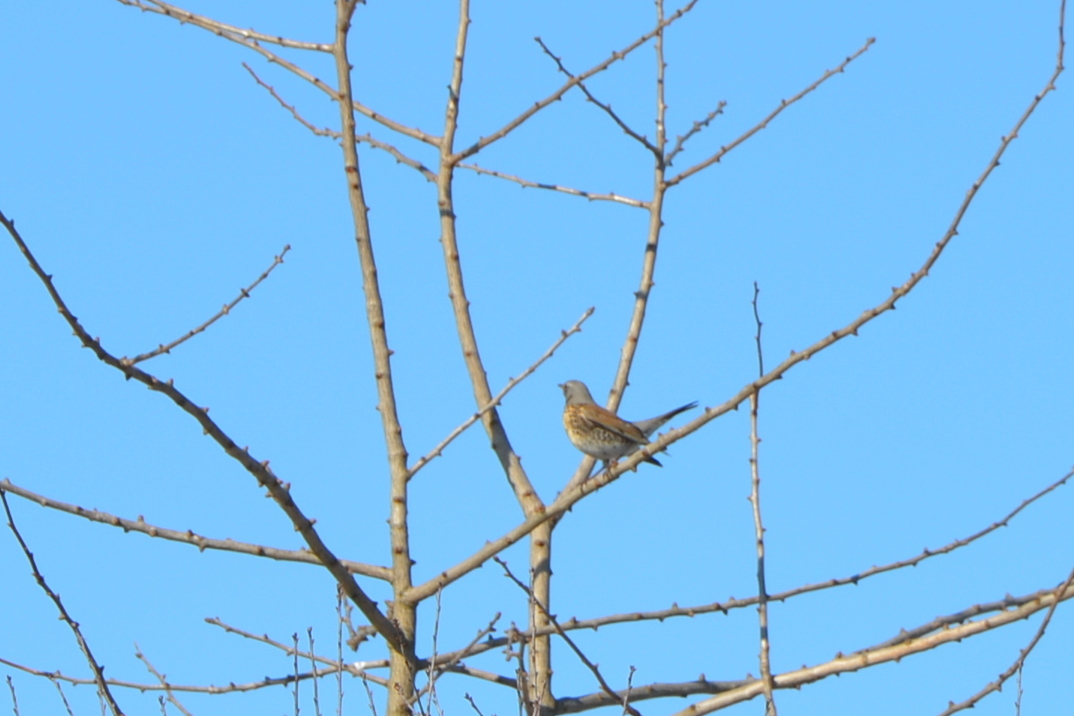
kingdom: Animalia
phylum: Chordata
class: Aves
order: Passeriformes
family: Turdidae
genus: Turdus
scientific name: Turdus pilaris
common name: Fieldfare
